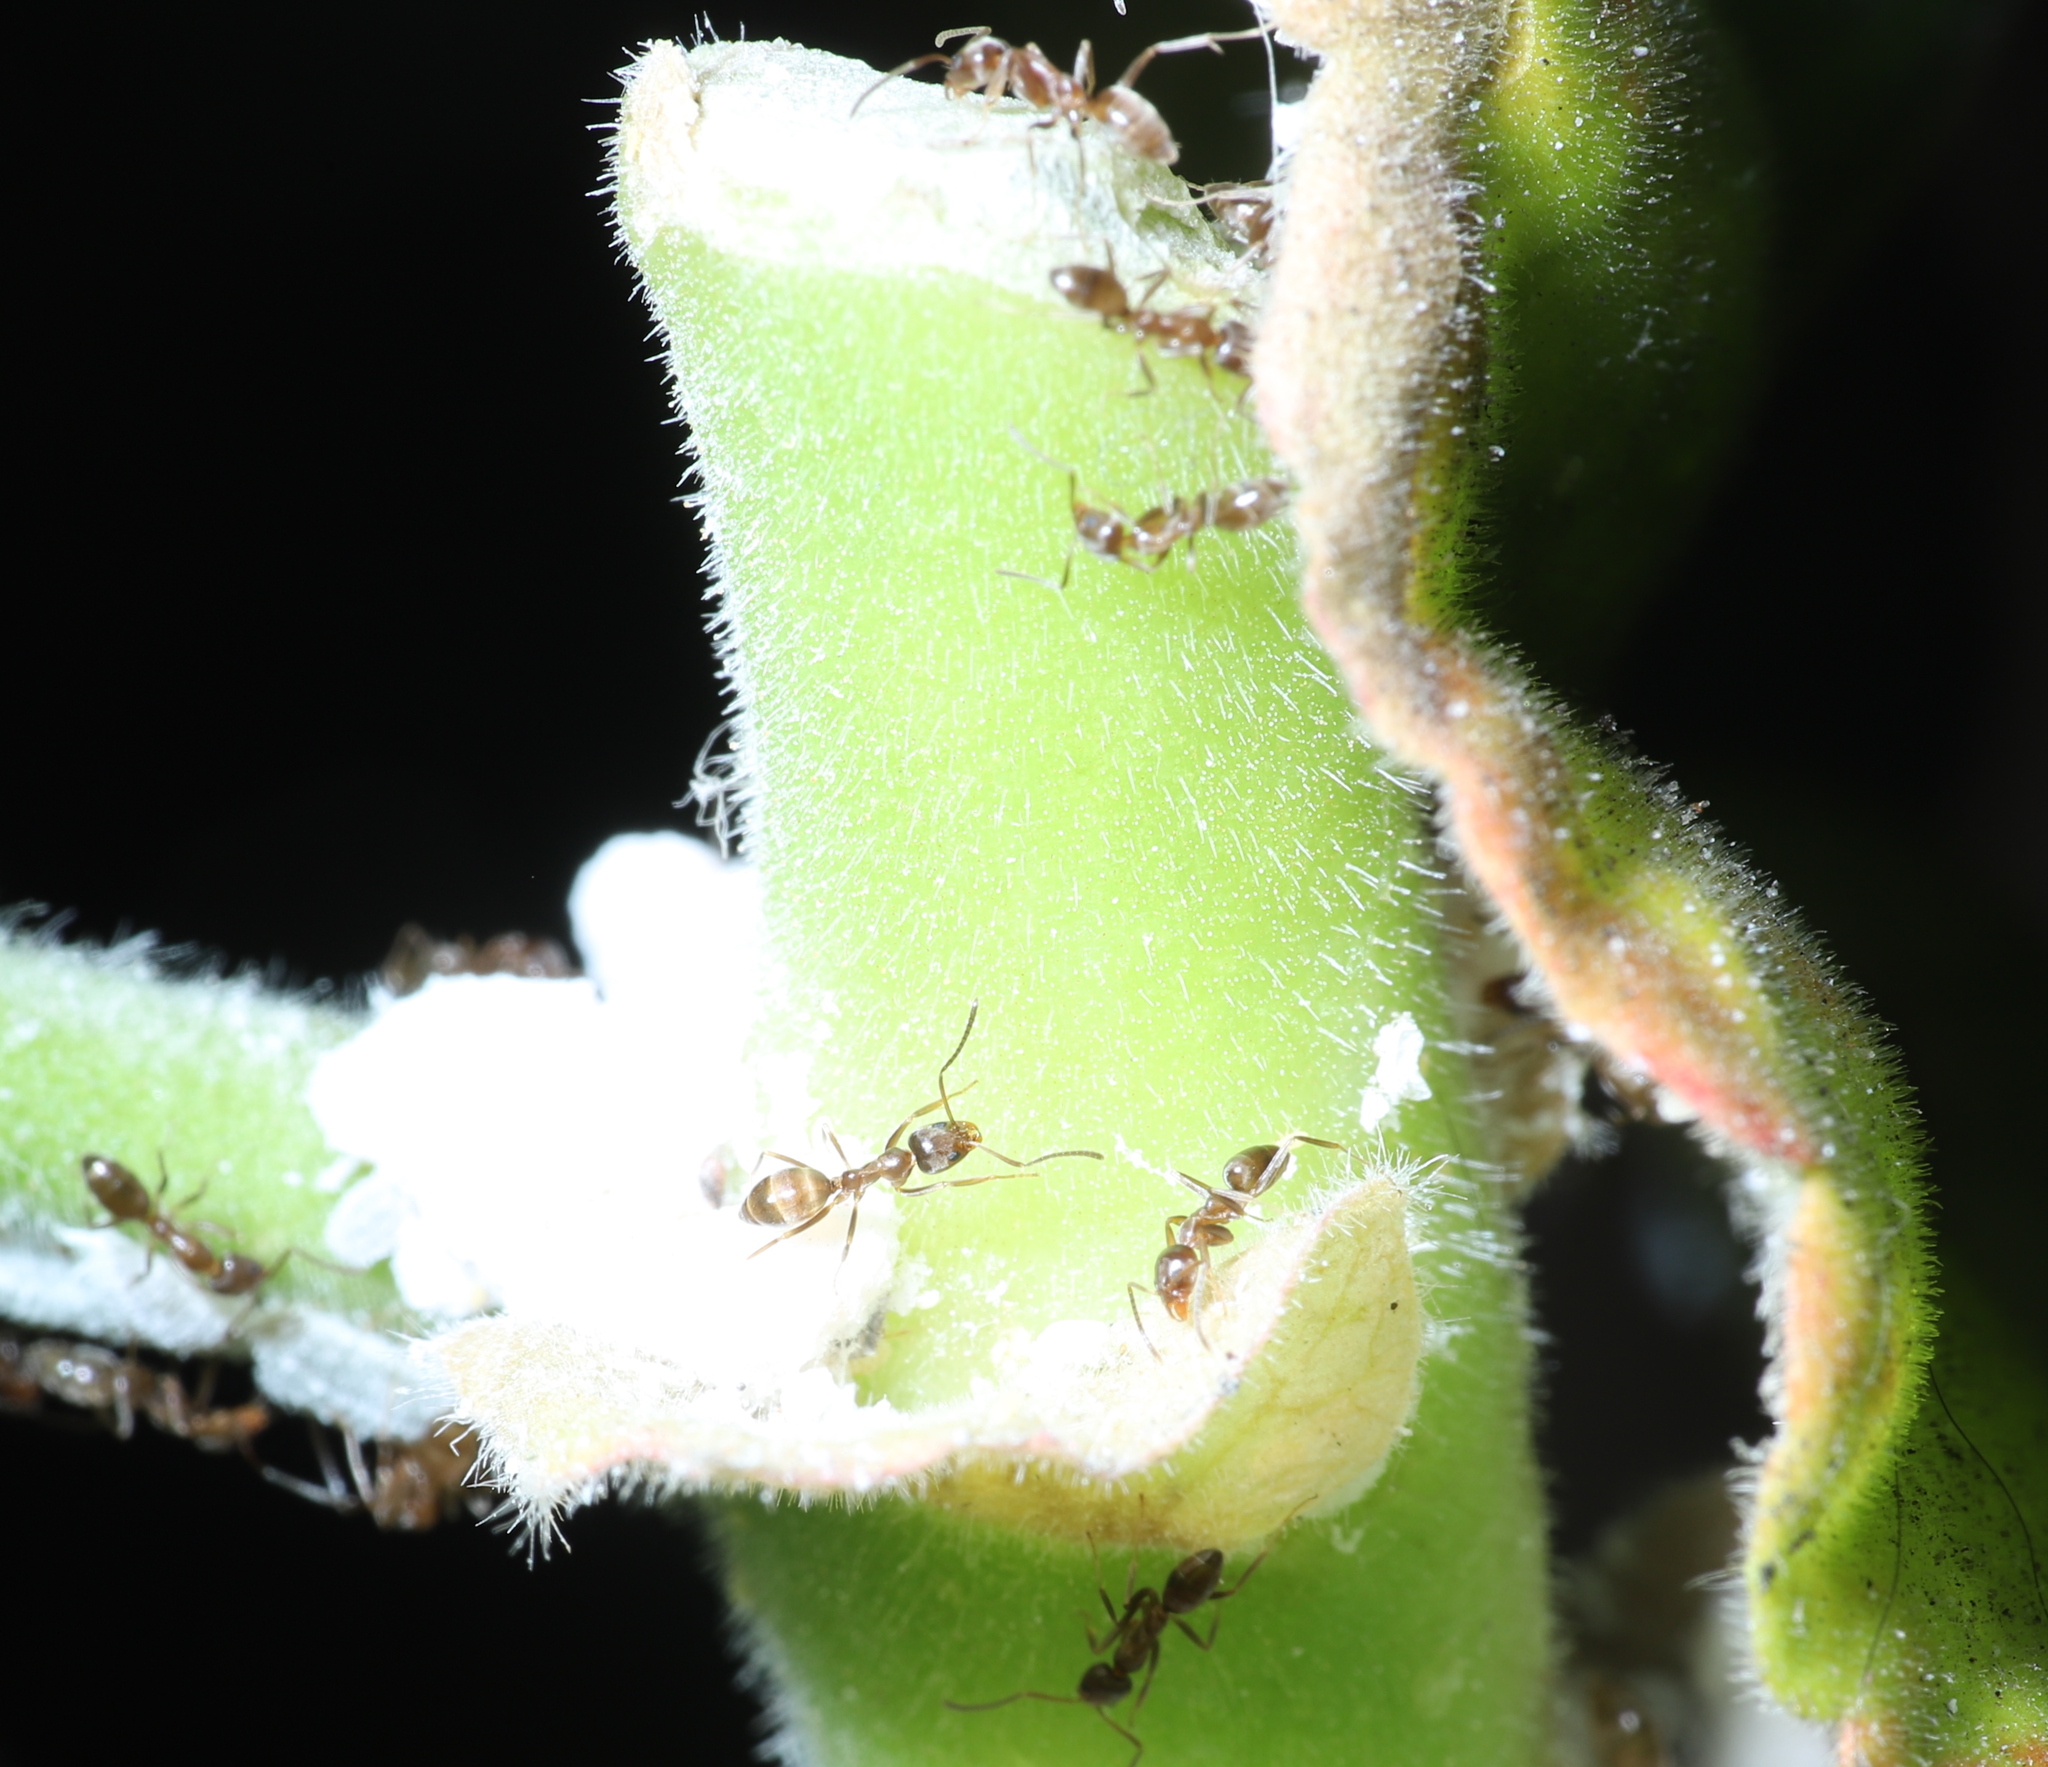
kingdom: Animalia
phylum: Arthropoda
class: Insecta
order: Hymenoptera
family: Formicidae
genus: Linepithema
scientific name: Linepithema humile
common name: Argentine ant
